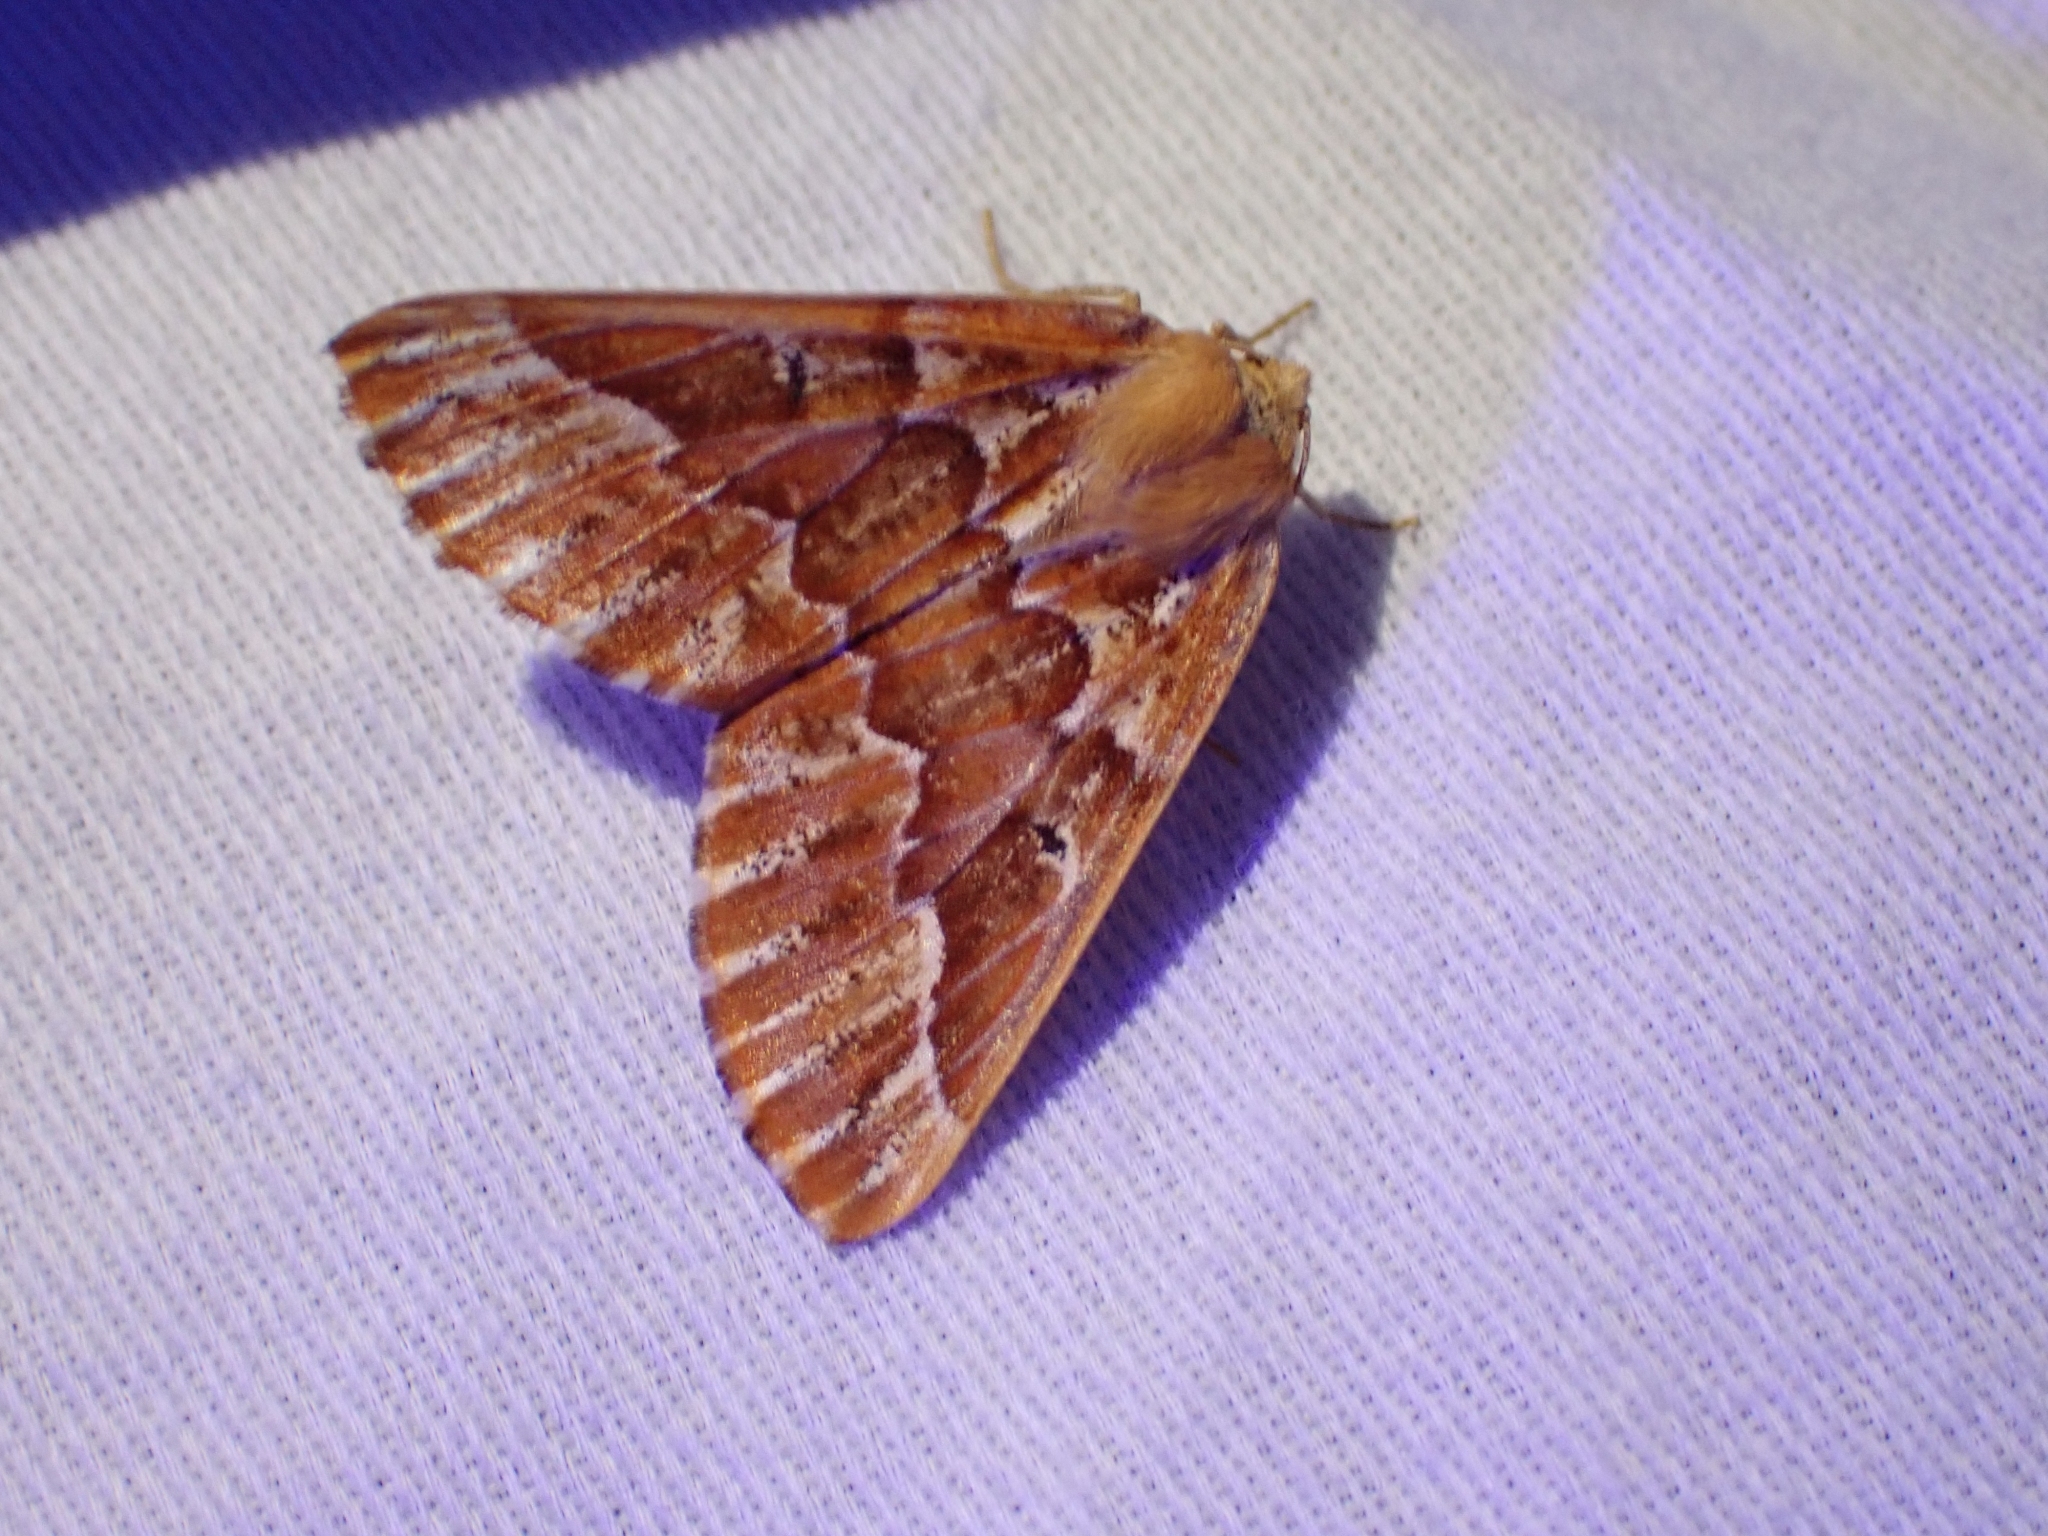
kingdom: Animalia
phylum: Arthropoda
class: Insecta
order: Lepidoptera
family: Geometridae
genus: Caripeta
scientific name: Caripeta aequaliaria
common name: Red girdle moth
